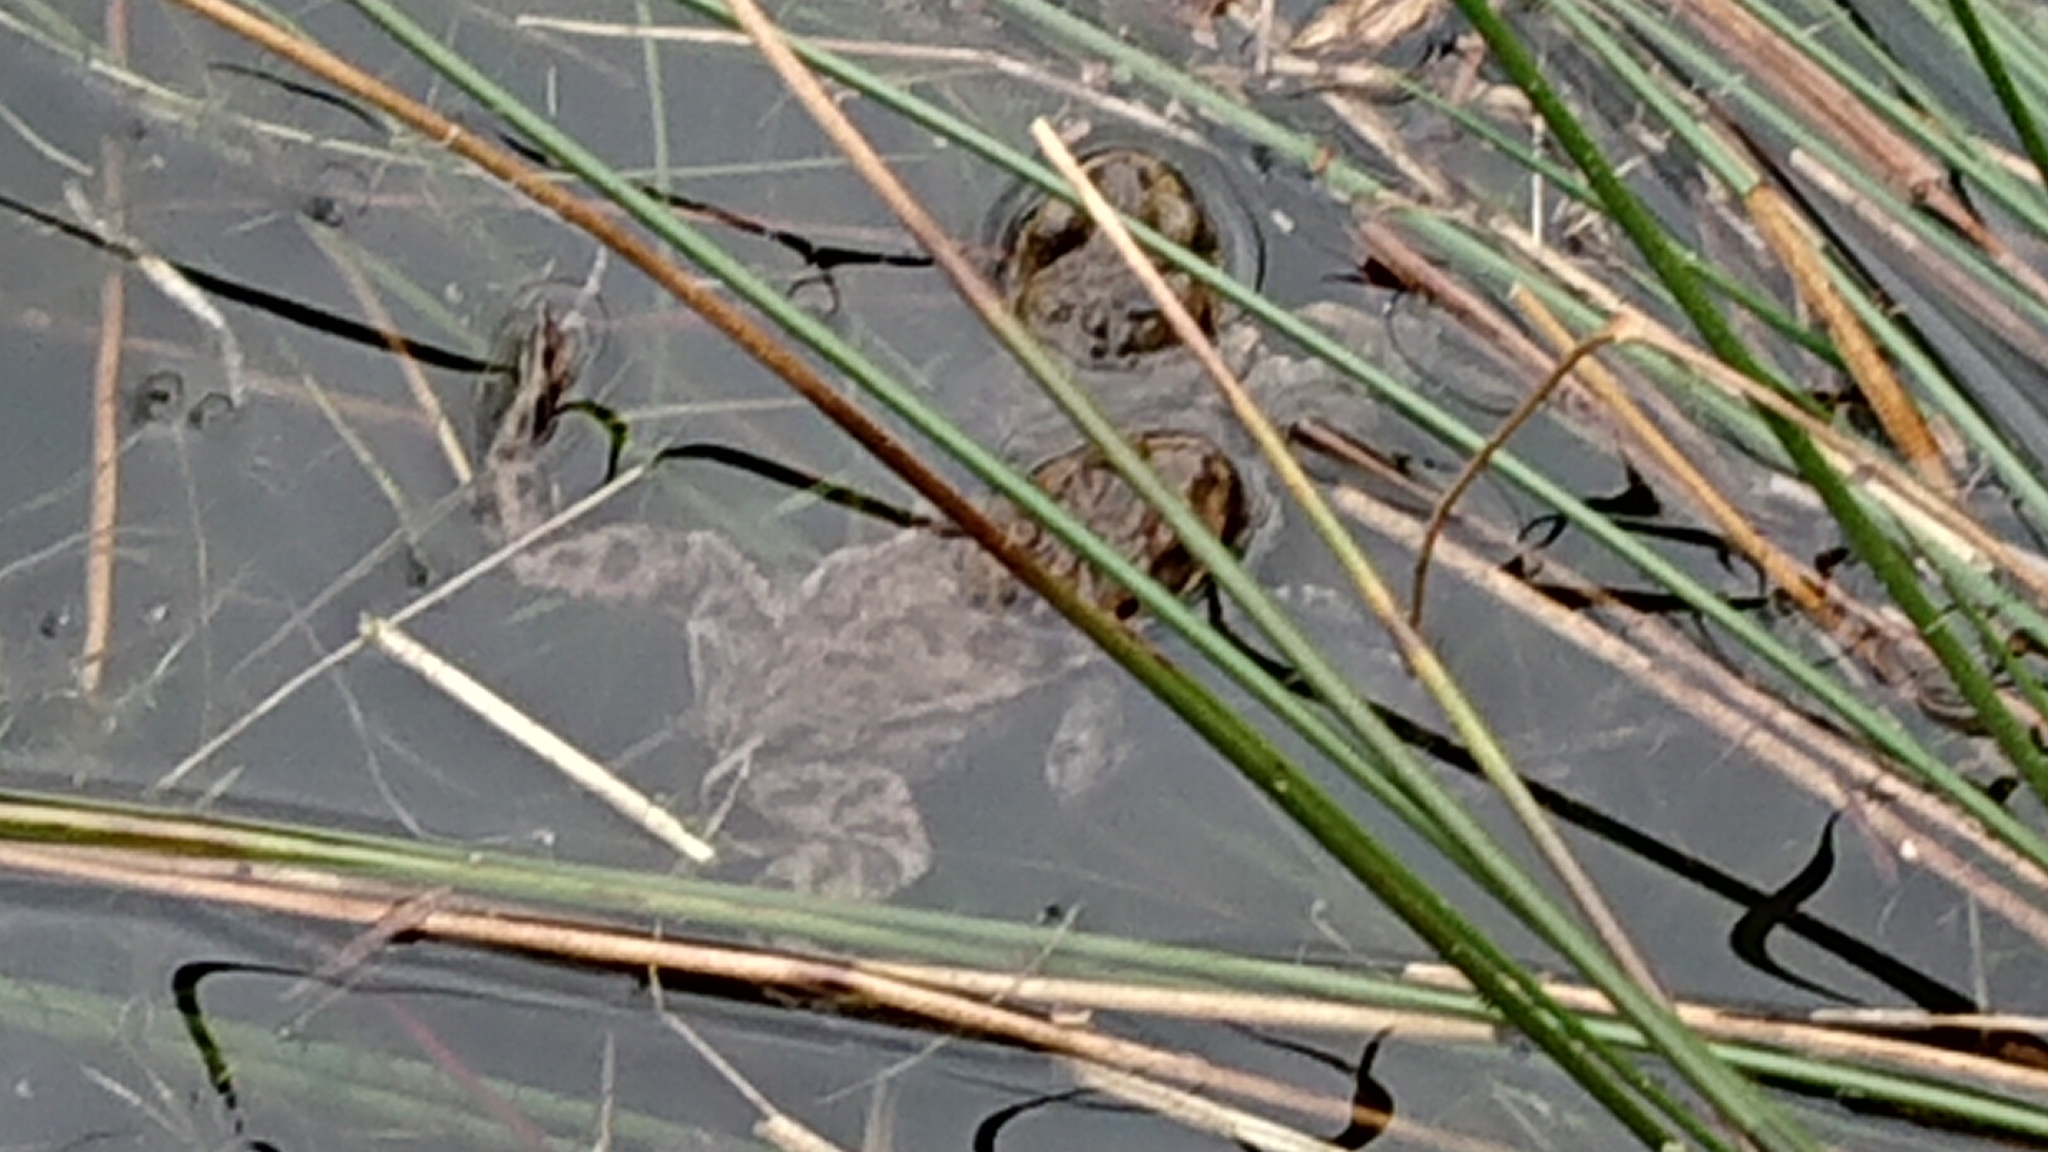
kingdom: Animalia
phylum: Chordata
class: Amphibia
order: Anura
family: Ranidae
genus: Rana
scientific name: Rana temporaria
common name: Common frog
